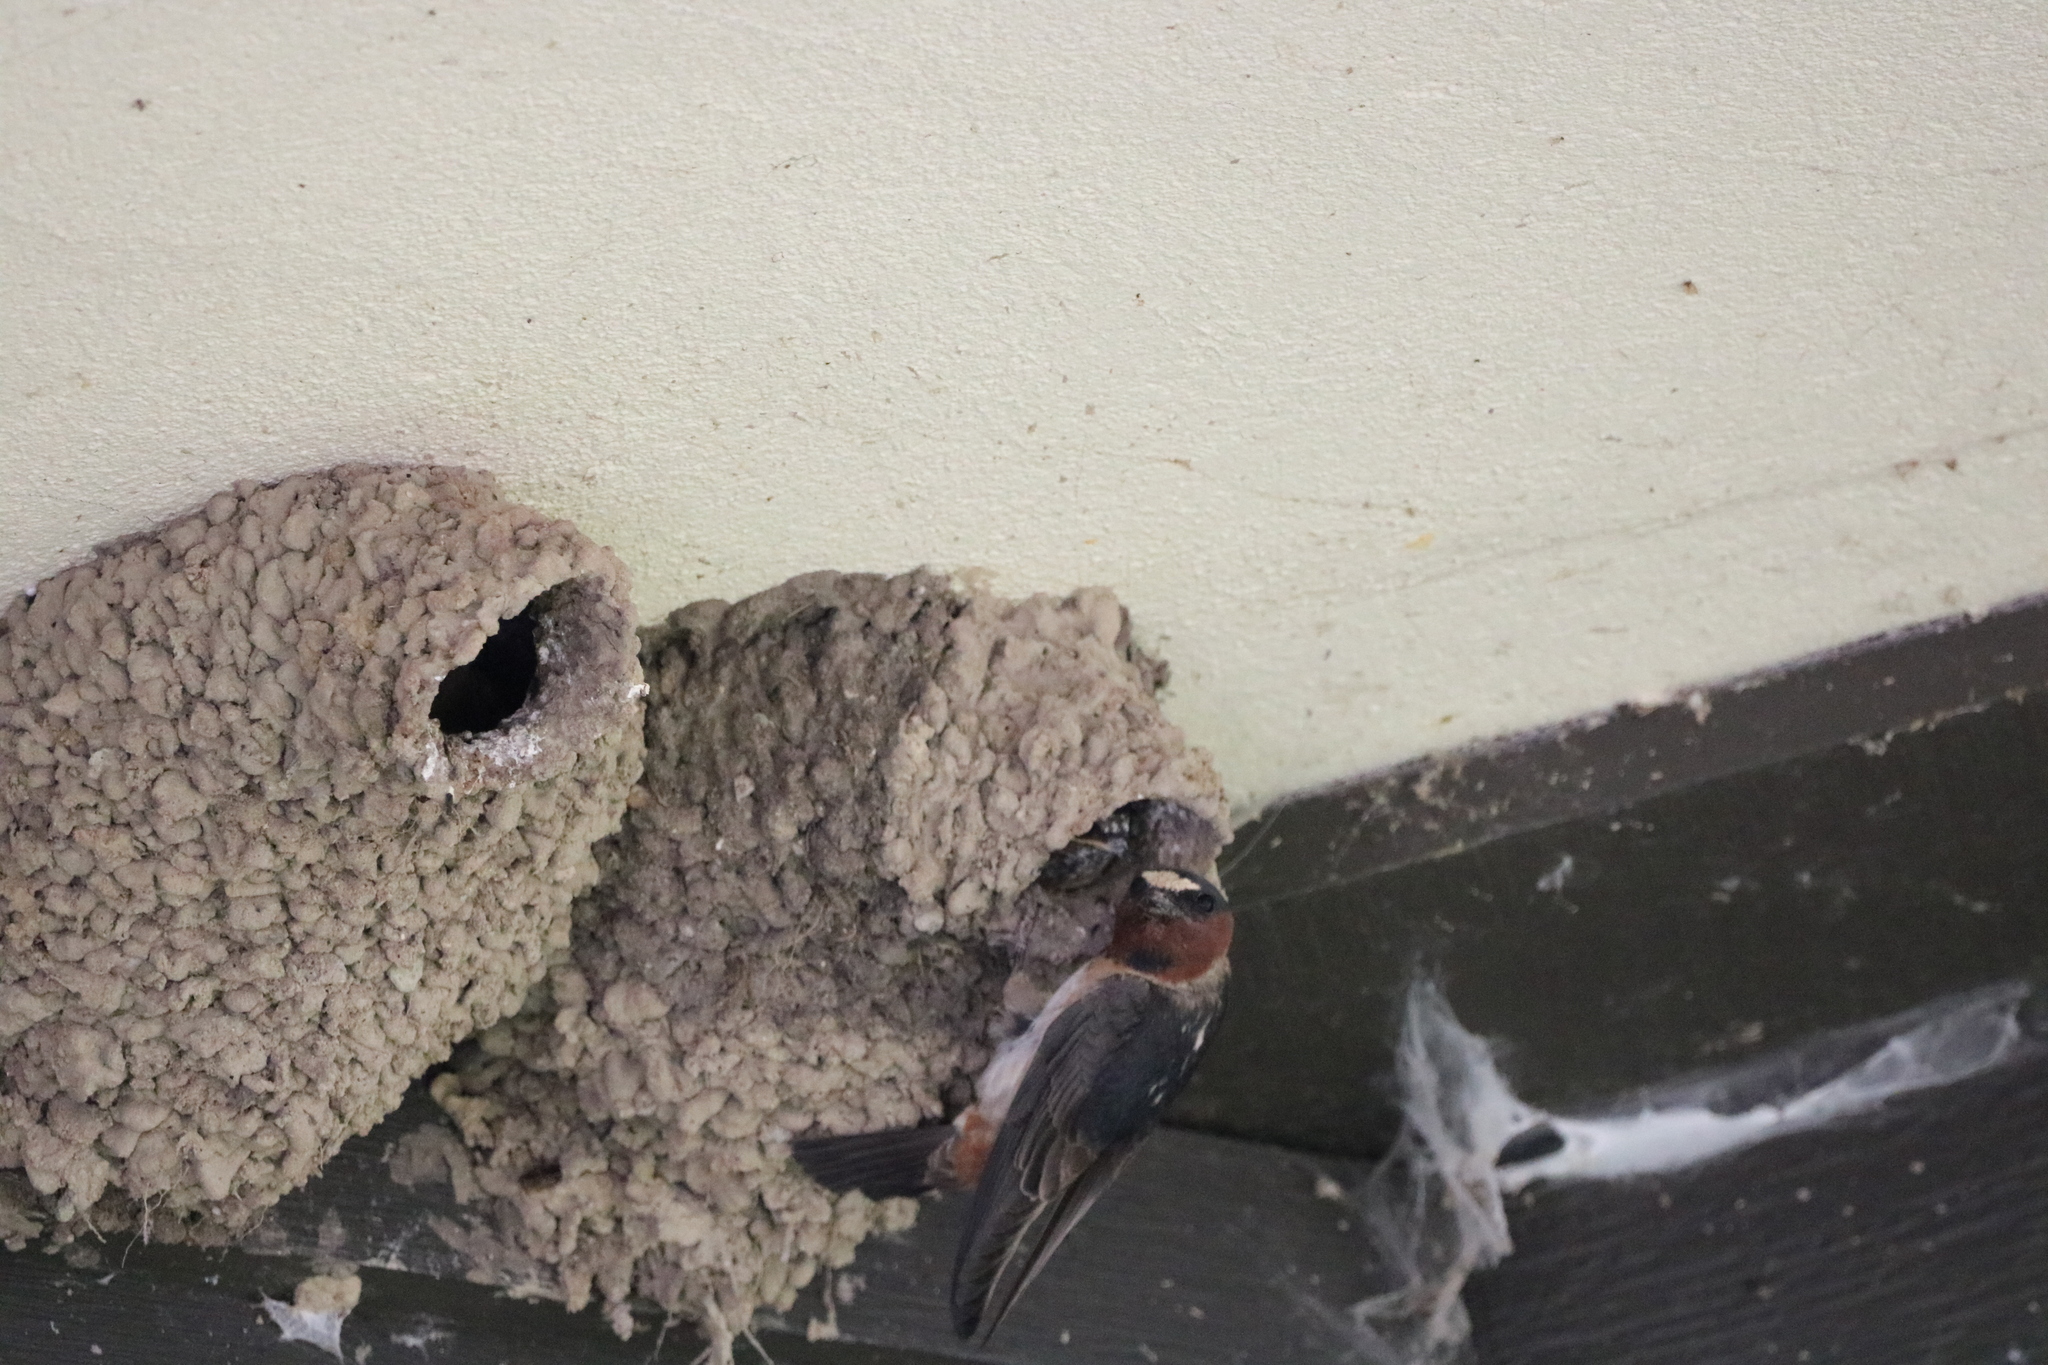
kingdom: Animalia
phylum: Chordata
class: Aves
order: Passeriformes
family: Hirundinidae
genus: Petrochelidon
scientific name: Petrochelidon pyrrhonota
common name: American cliff swallow
